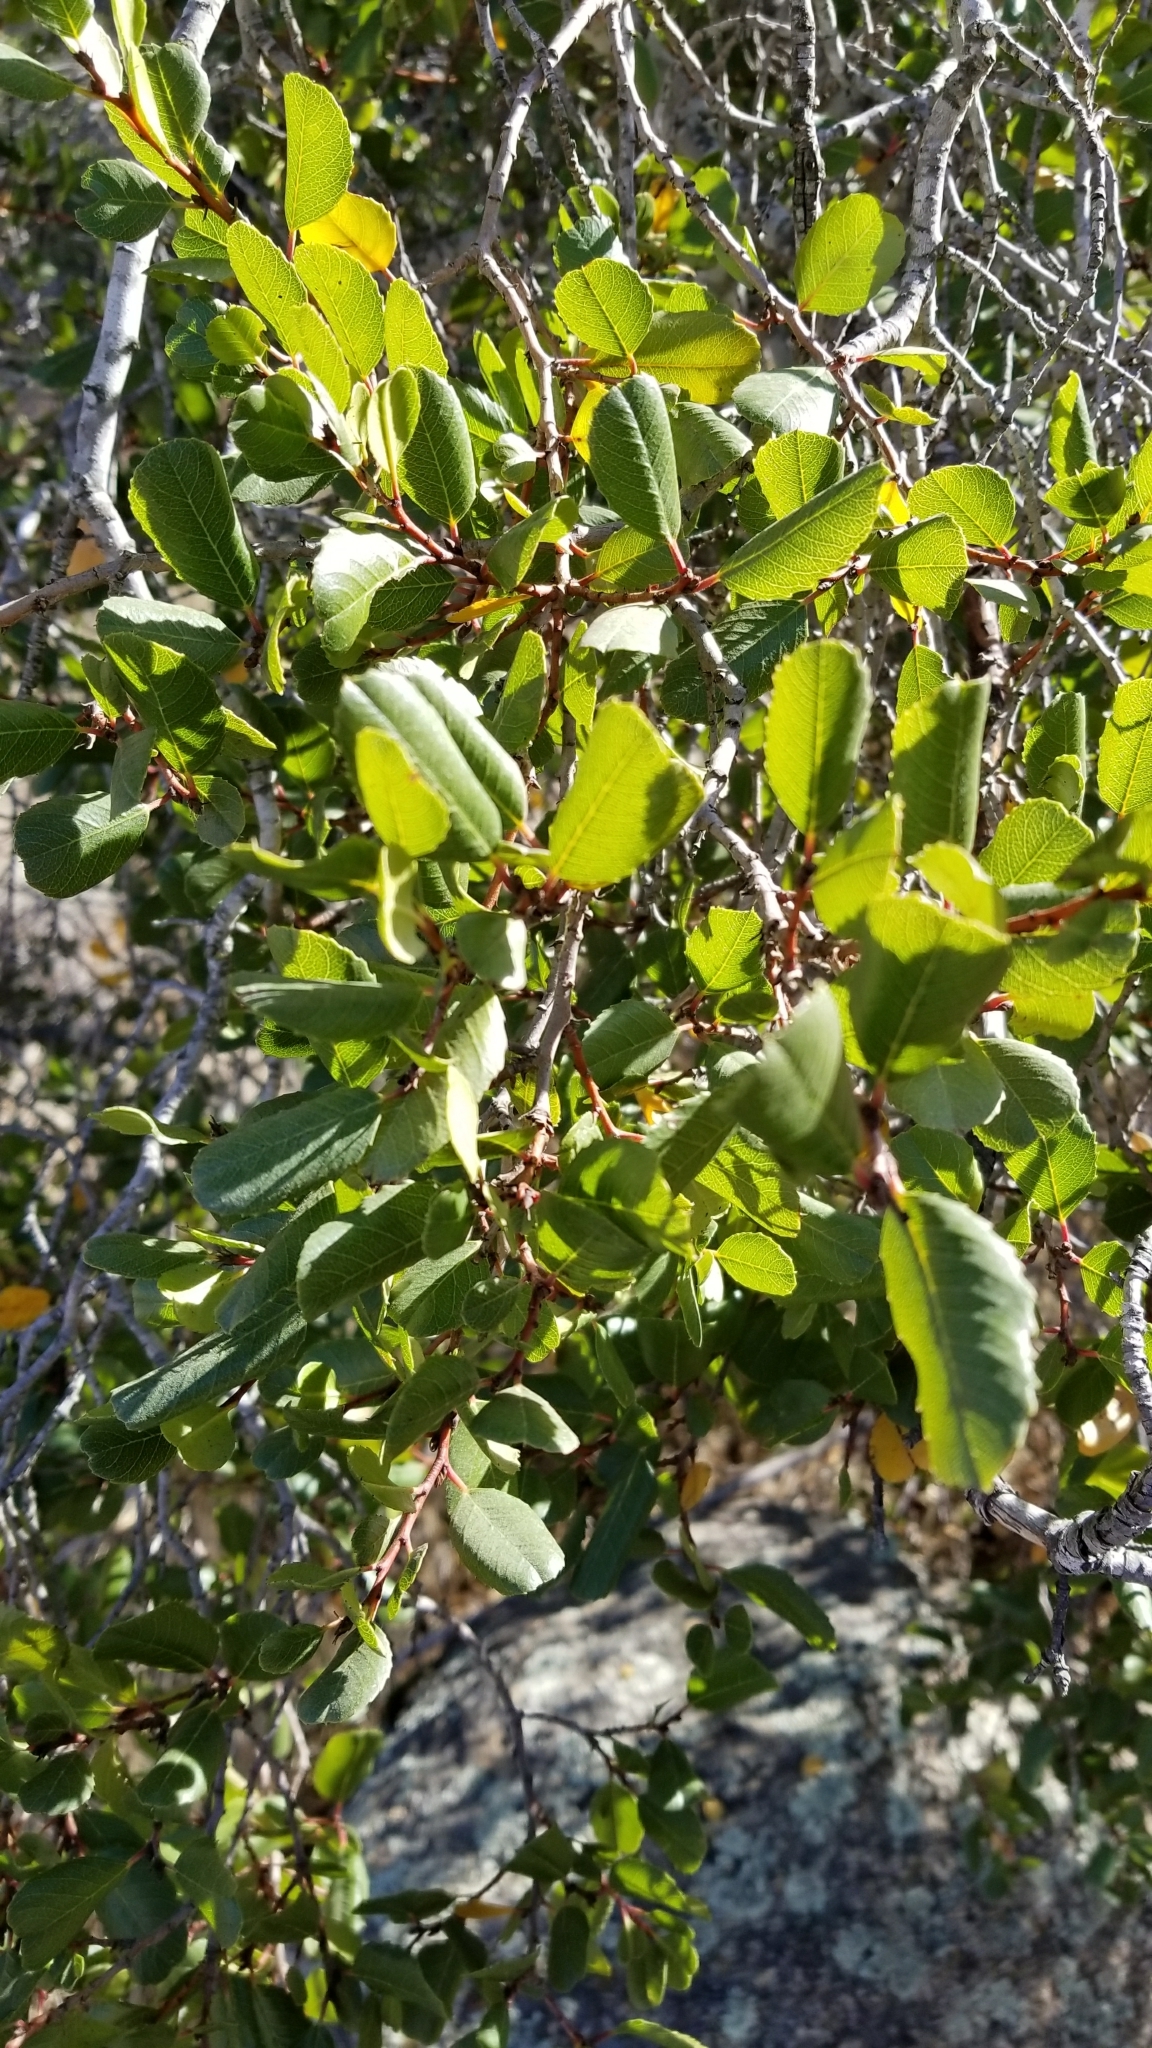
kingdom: Plantae
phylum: Tracheophyta
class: Magnoliopsida
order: Rosales
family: Rhamnaceae
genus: Endotropis
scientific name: Endotropis crocea
